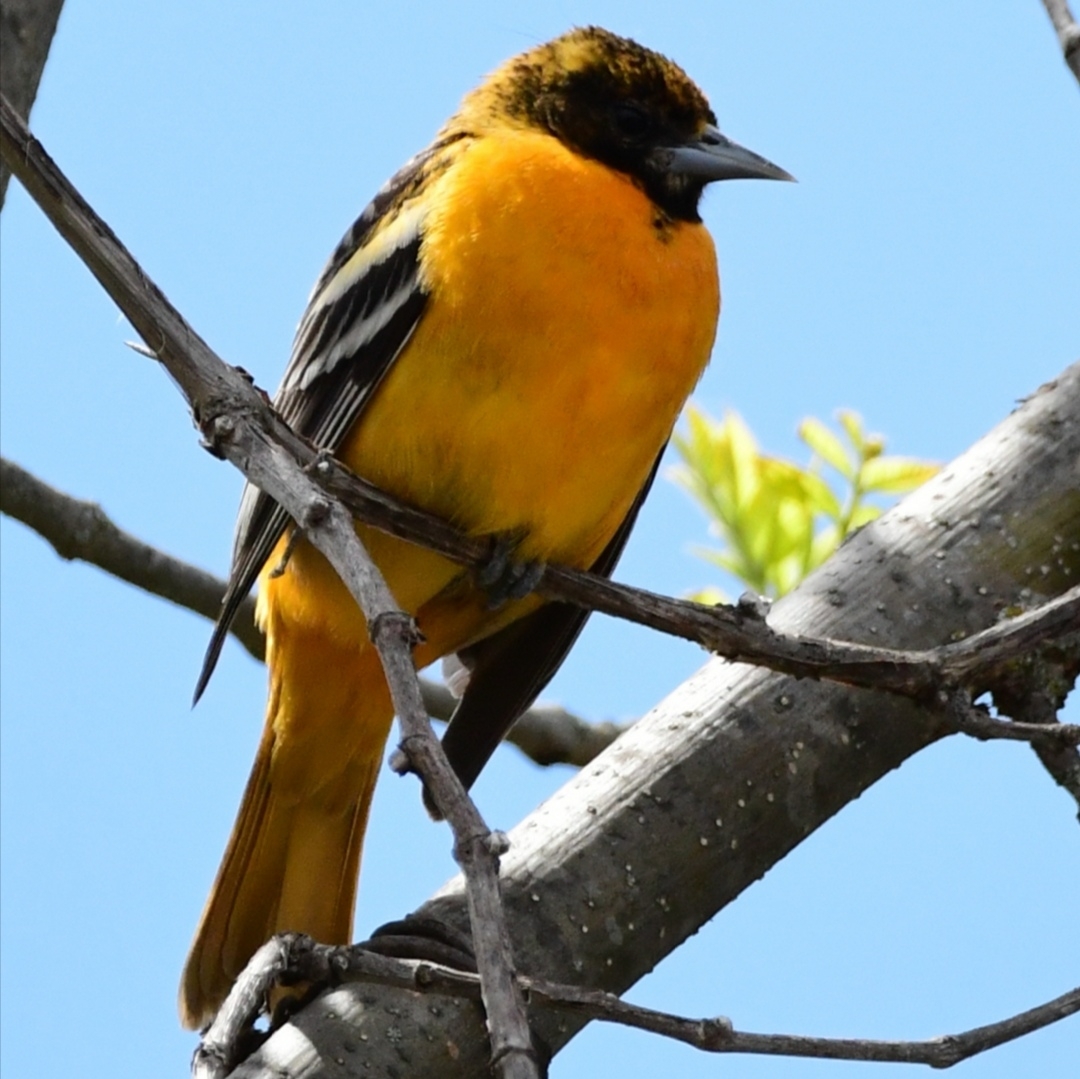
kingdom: Animalia
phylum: Chordata
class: Aves
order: Passeriformes
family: Icteridae
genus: Icterus
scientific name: Icterus galbula
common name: Baltimore oriole
